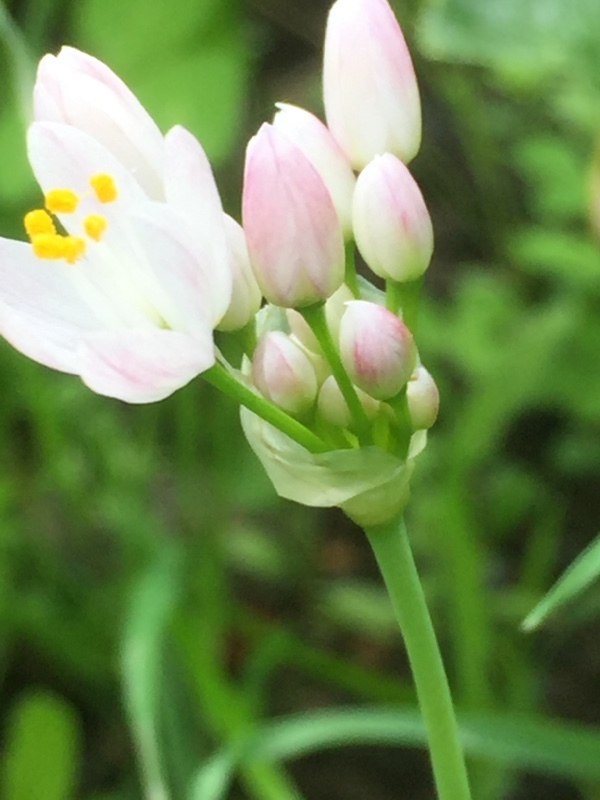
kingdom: Plantae
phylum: Tracheophyta
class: Liliopsida
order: Asparagales
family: Amaryllidaceae
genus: Allium
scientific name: Allium canariense
